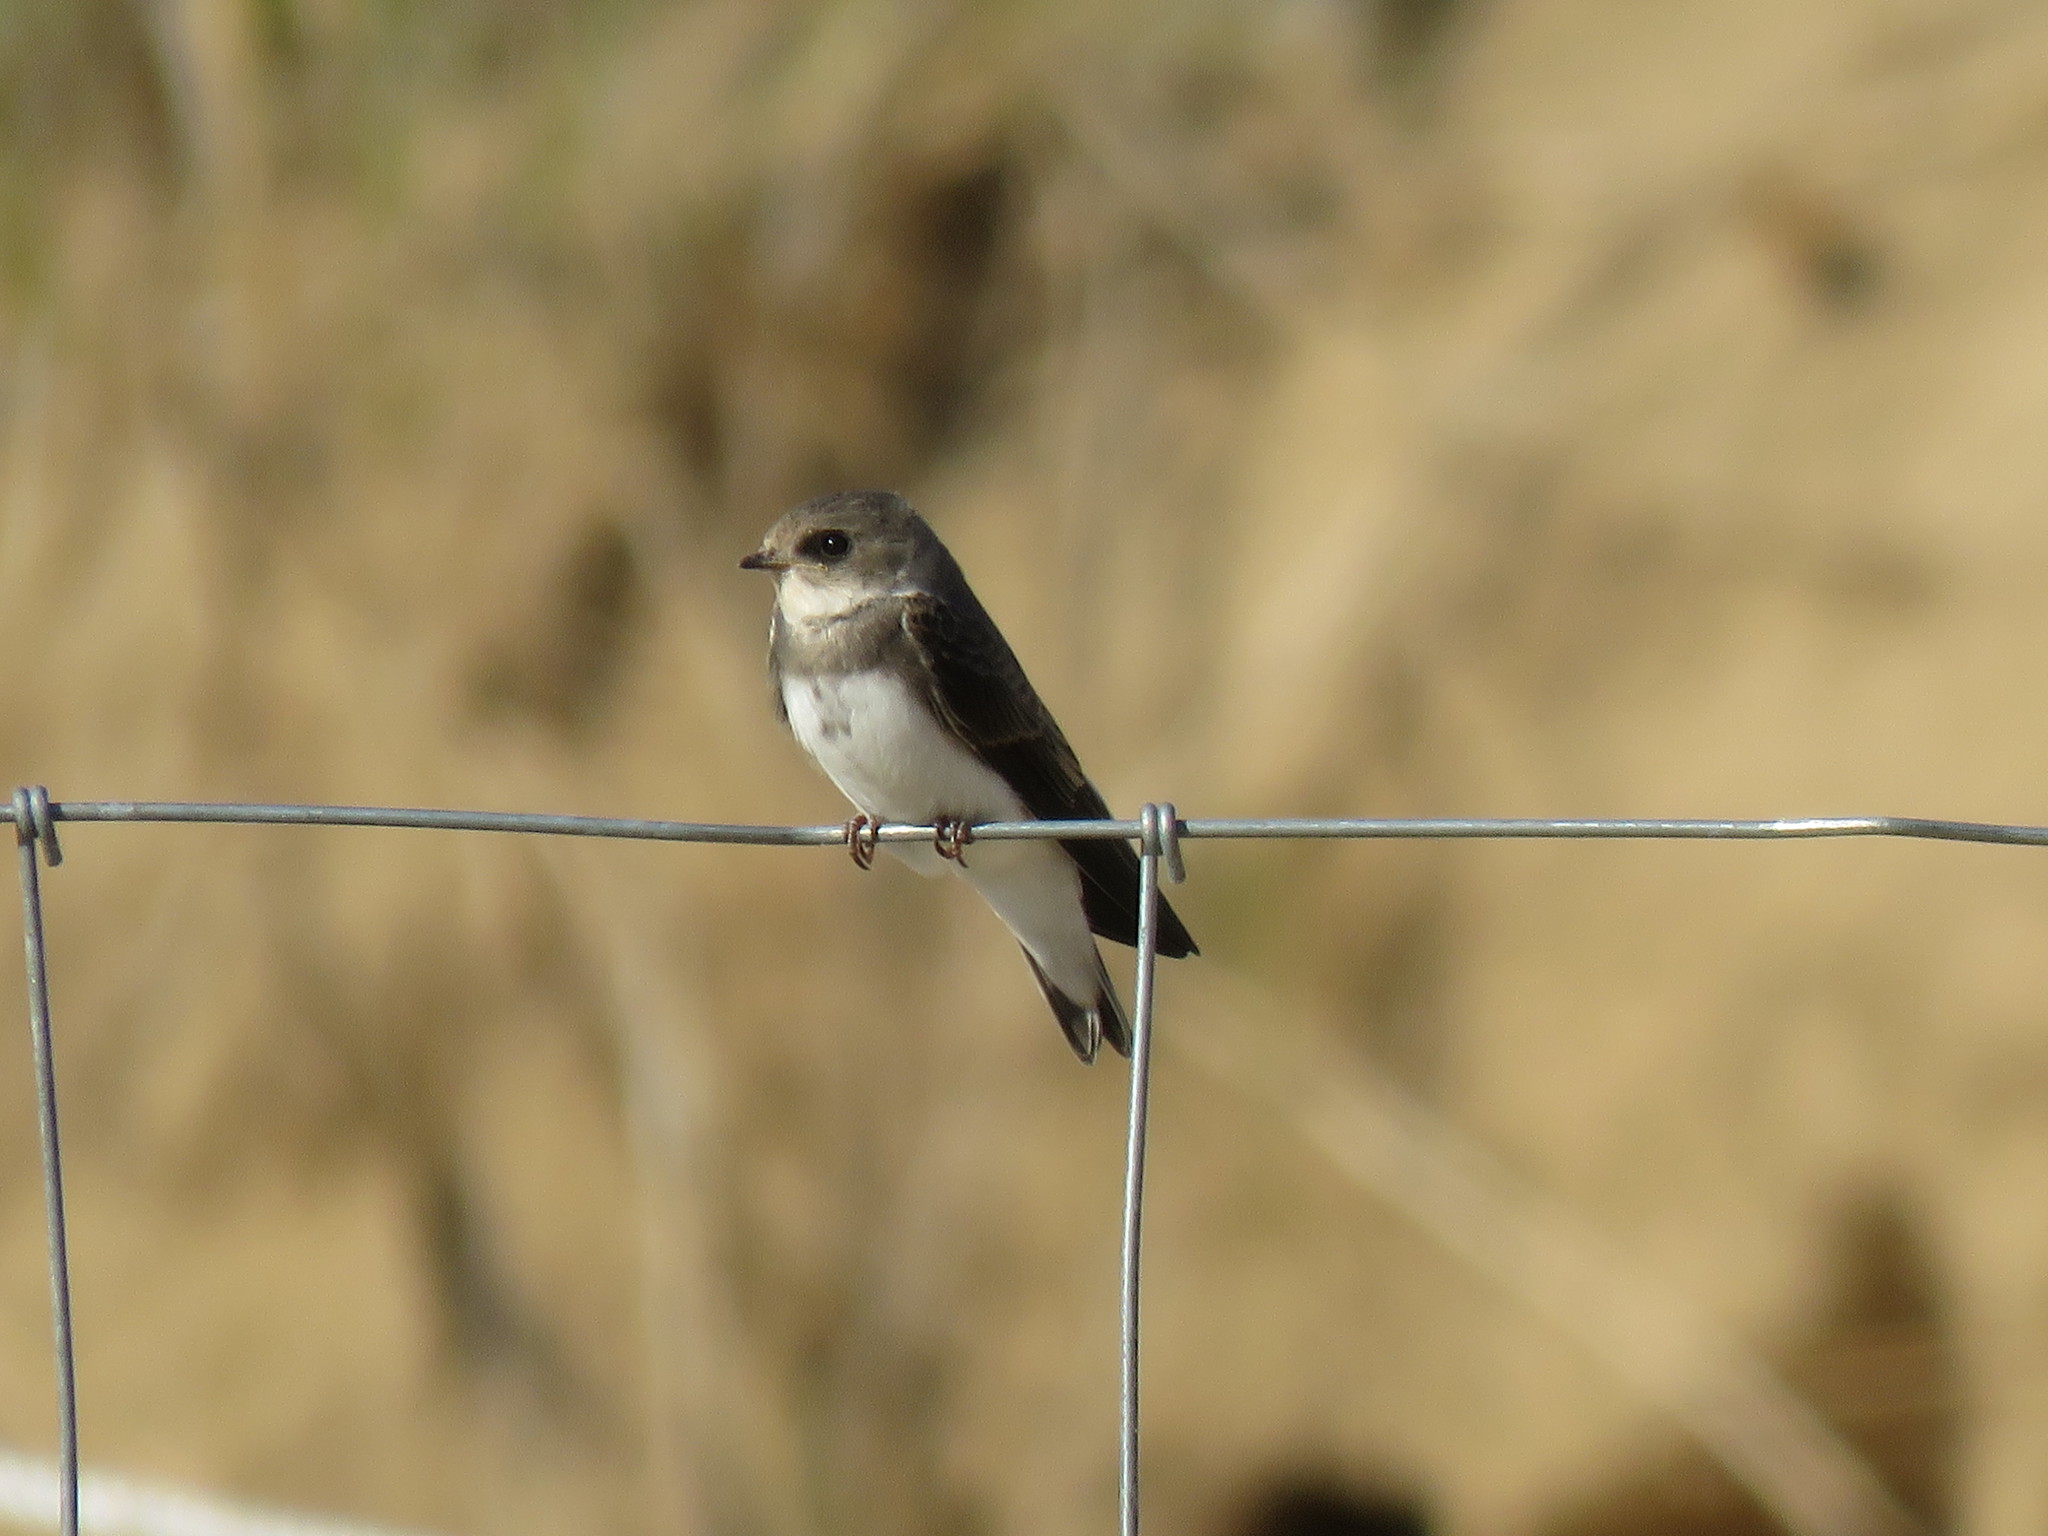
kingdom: Animalia
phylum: Chordata
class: Aves
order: Passeriformes
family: Hirundinidae
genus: Riparia
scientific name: Riparia riparia
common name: Sand martin
